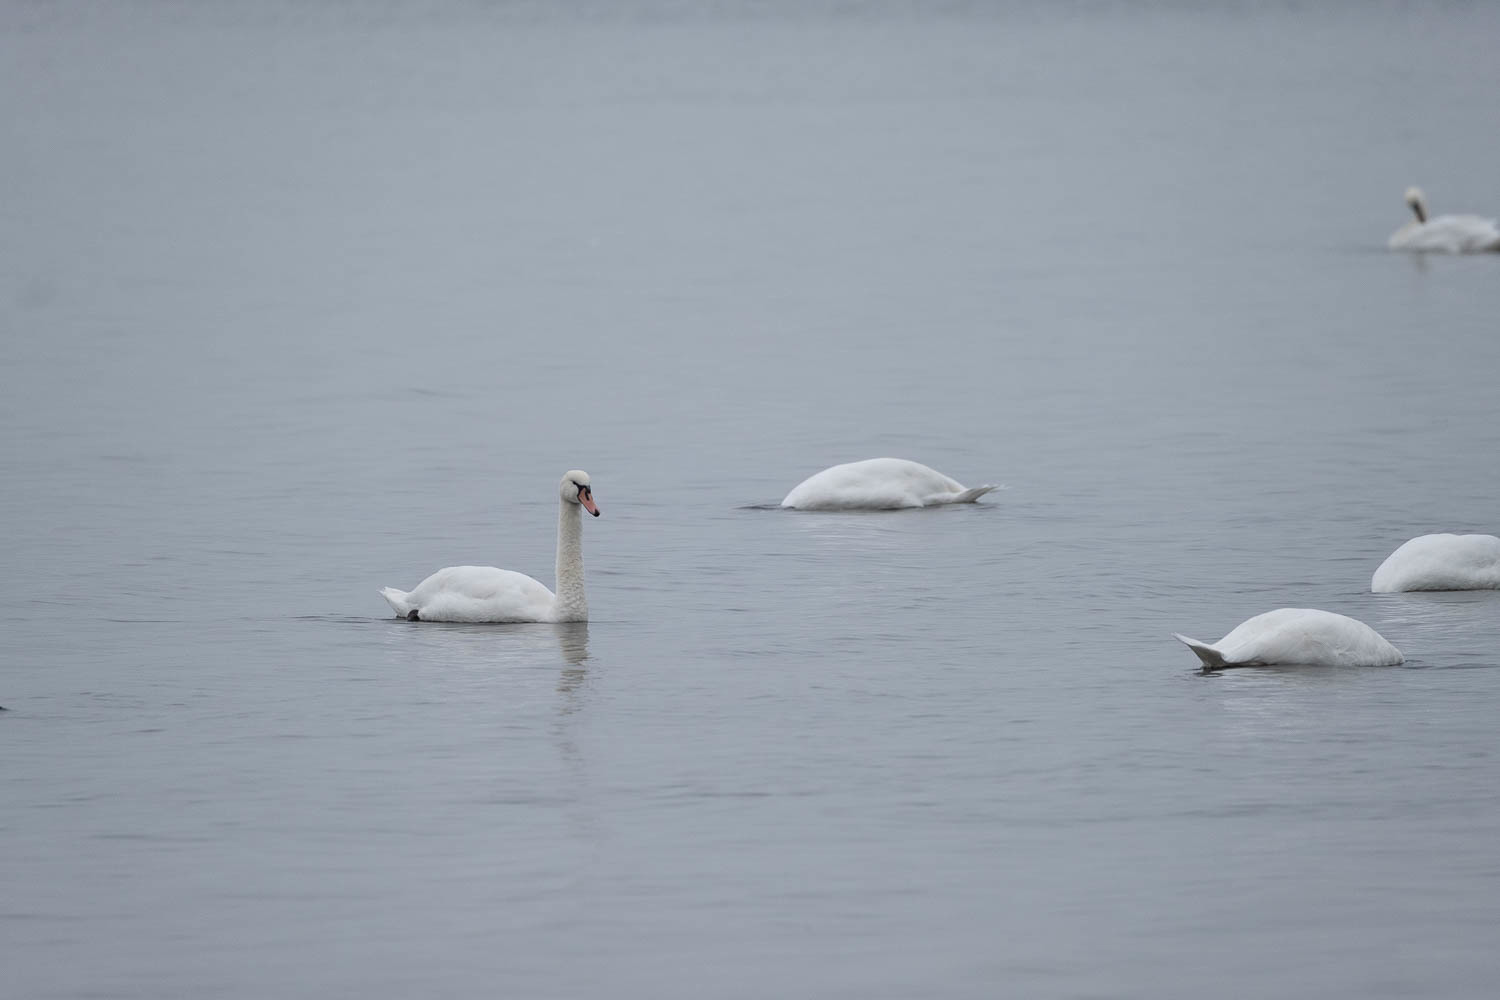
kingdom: Animalia
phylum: Chordata
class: Aves
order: Anseriformes
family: Anatidae
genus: Cygnus
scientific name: Cygnus olor
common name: Mute swan
